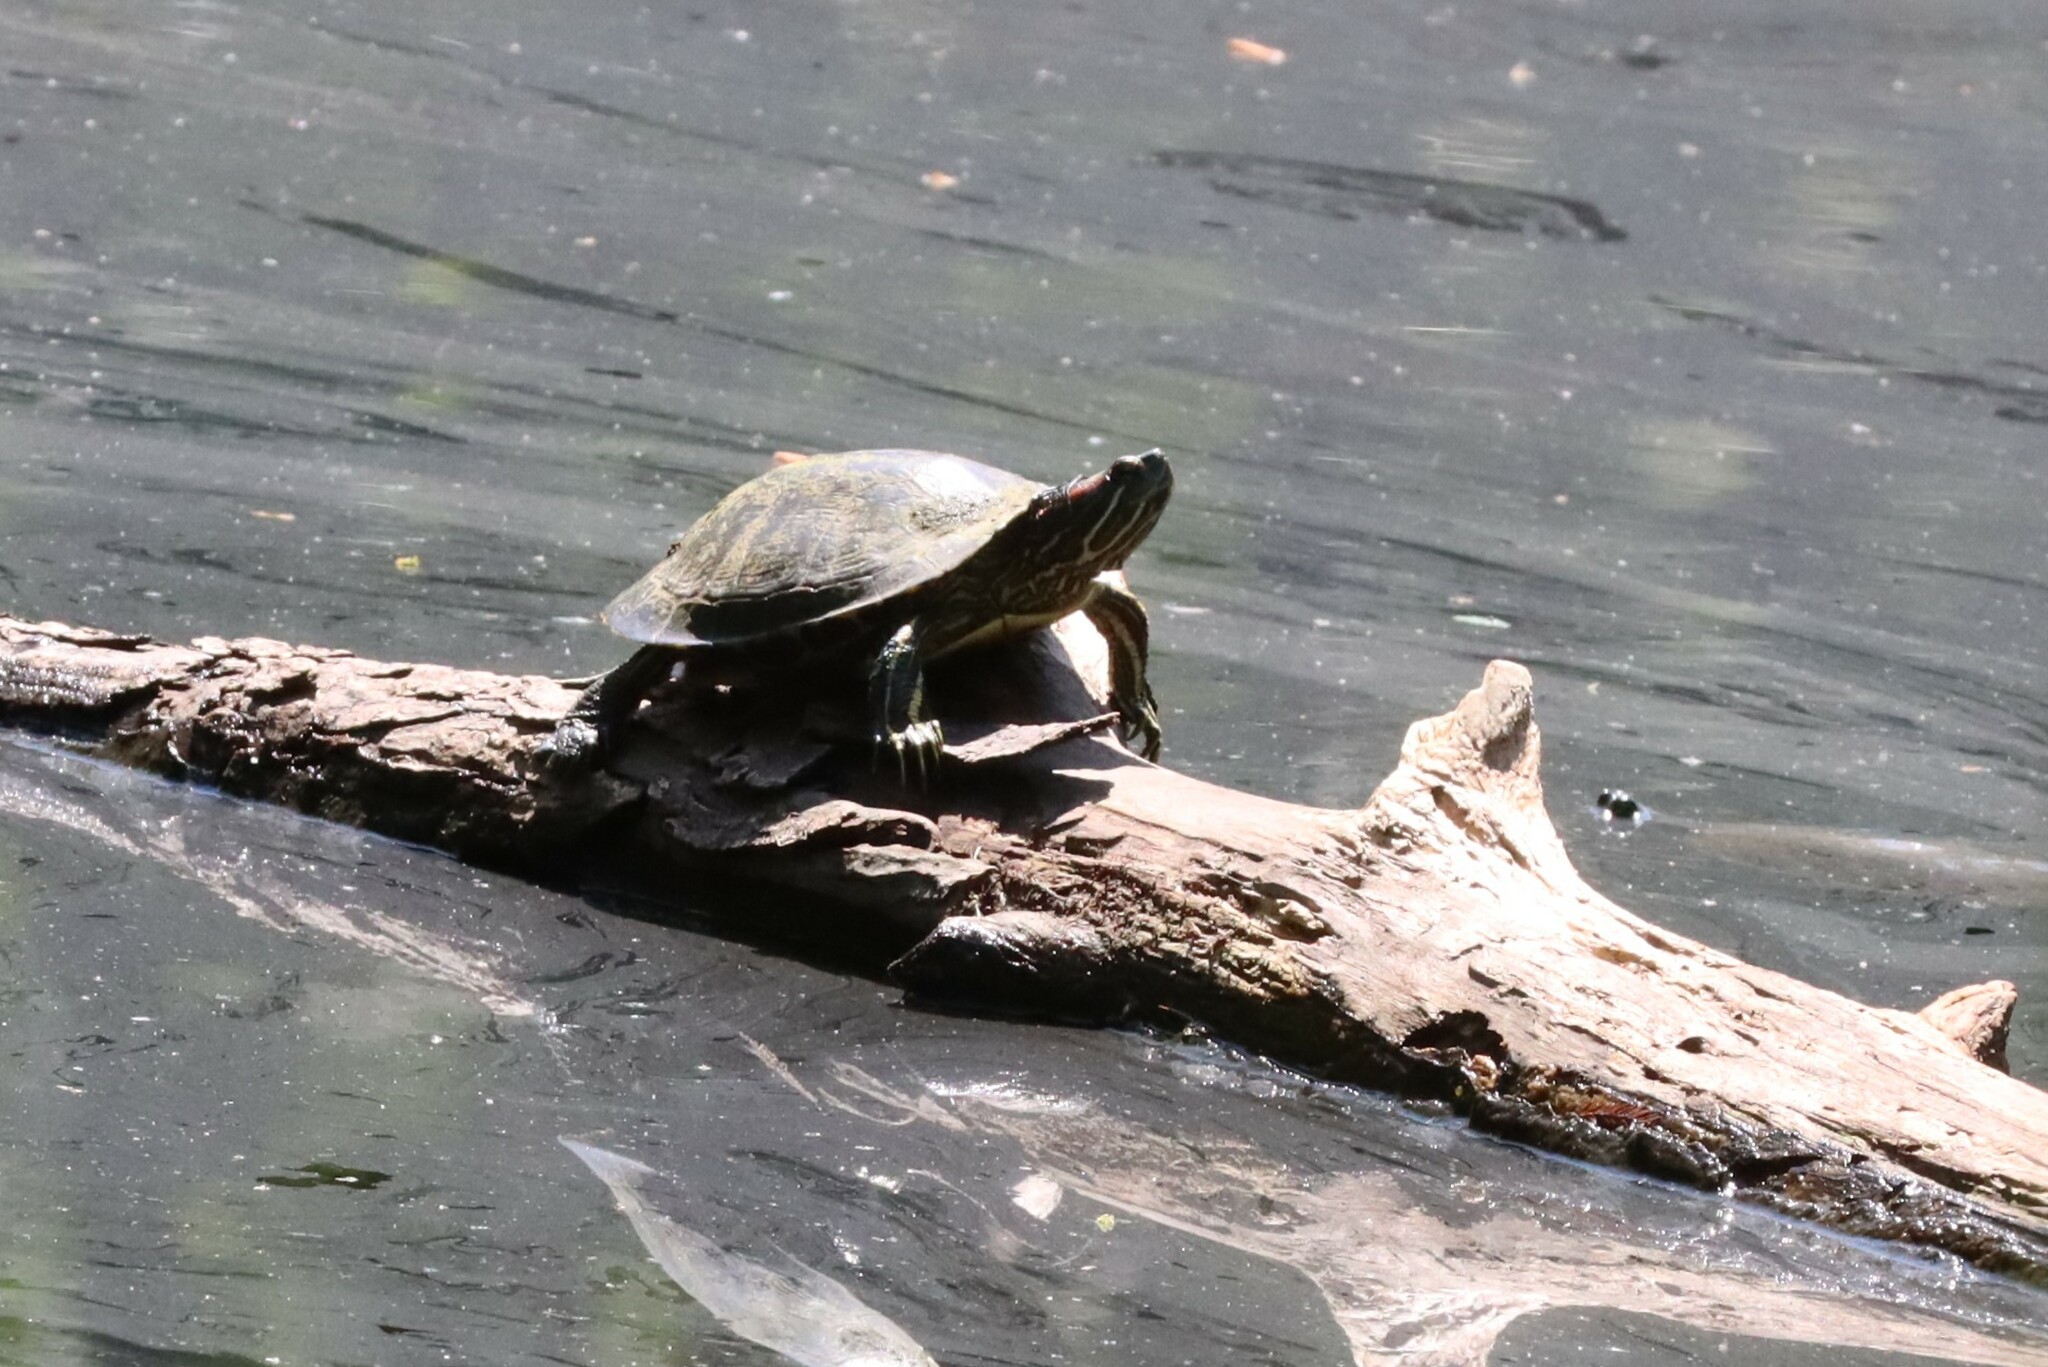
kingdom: Animalia
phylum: Chordata
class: Testudines
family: Emydidae
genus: Trachemys
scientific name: Trachemys scripta
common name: Slider
